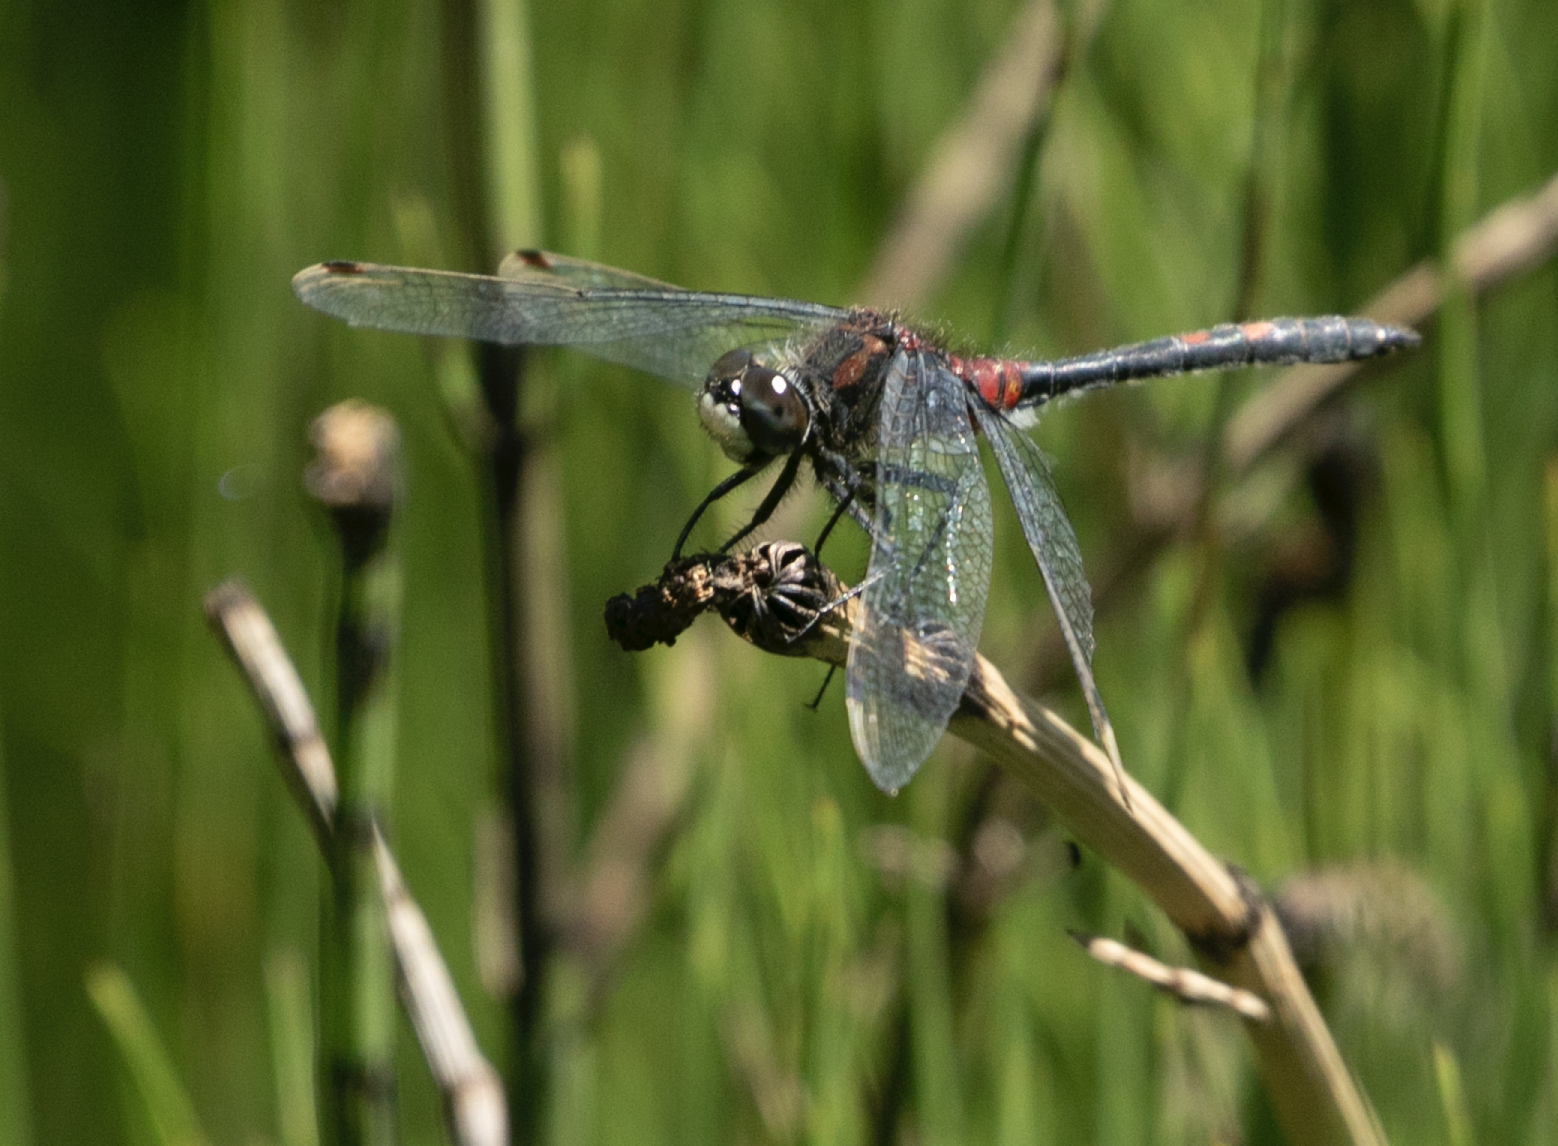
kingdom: Animalia
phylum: Arthropoda
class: Insecta
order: Odonata
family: Libellulidae
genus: Leucorrhinia
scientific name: Leucorrhinia dubia
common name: White-faced darter
